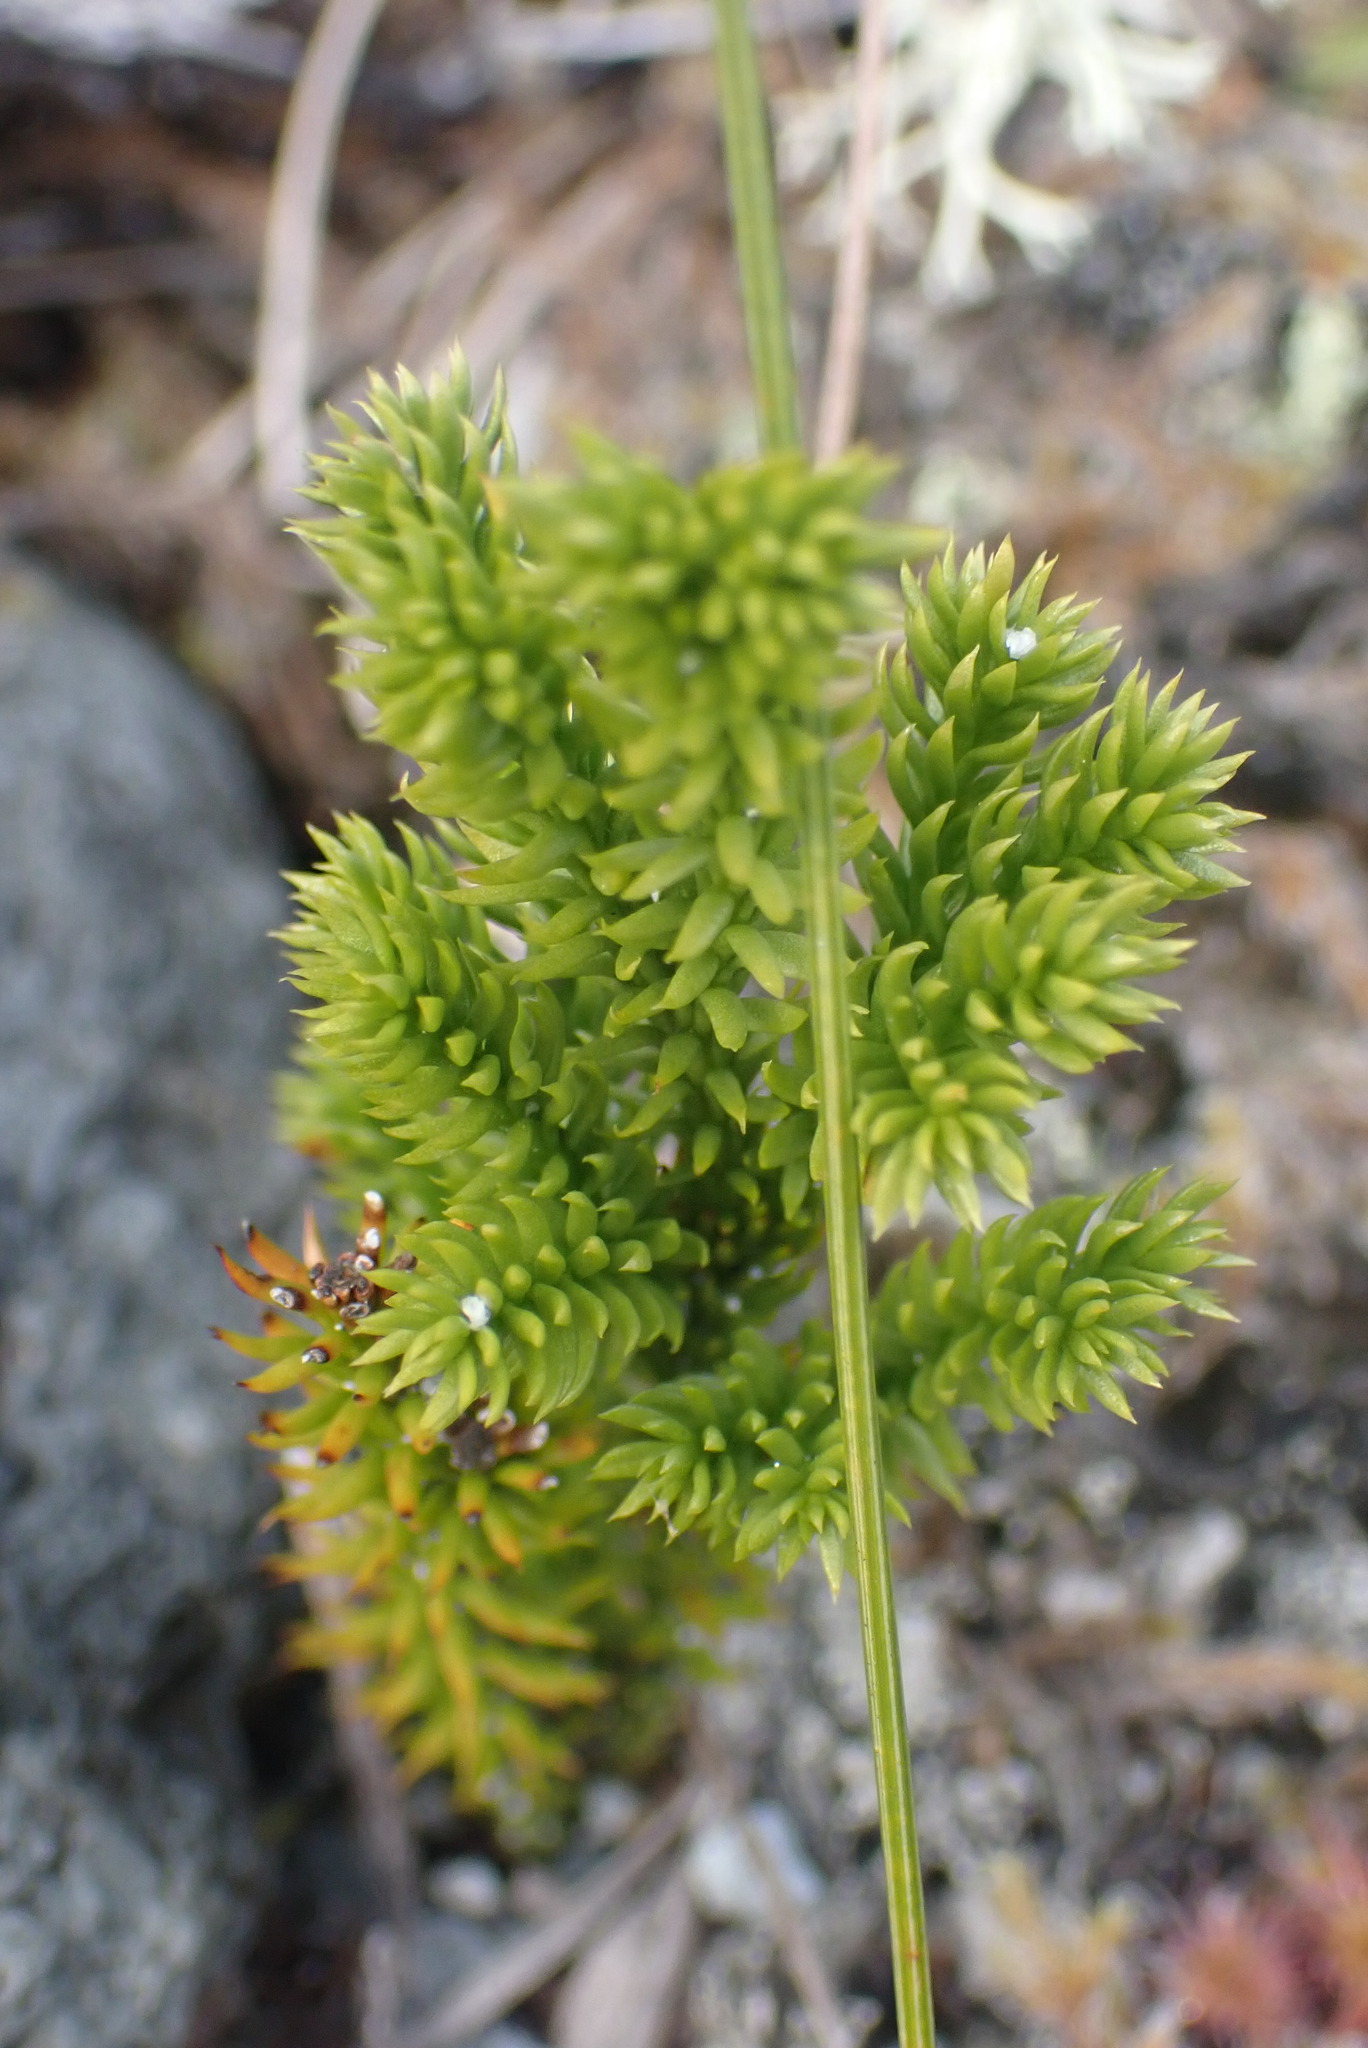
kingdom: Plantae
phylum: Tracheophyta
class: Lycopodiopsida
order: Lycopodiales
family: Lycopodiaceae
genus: Dendrolycopodium
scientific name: Dendrolycopodium dendroideum
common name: Northern tree-clubmoss
